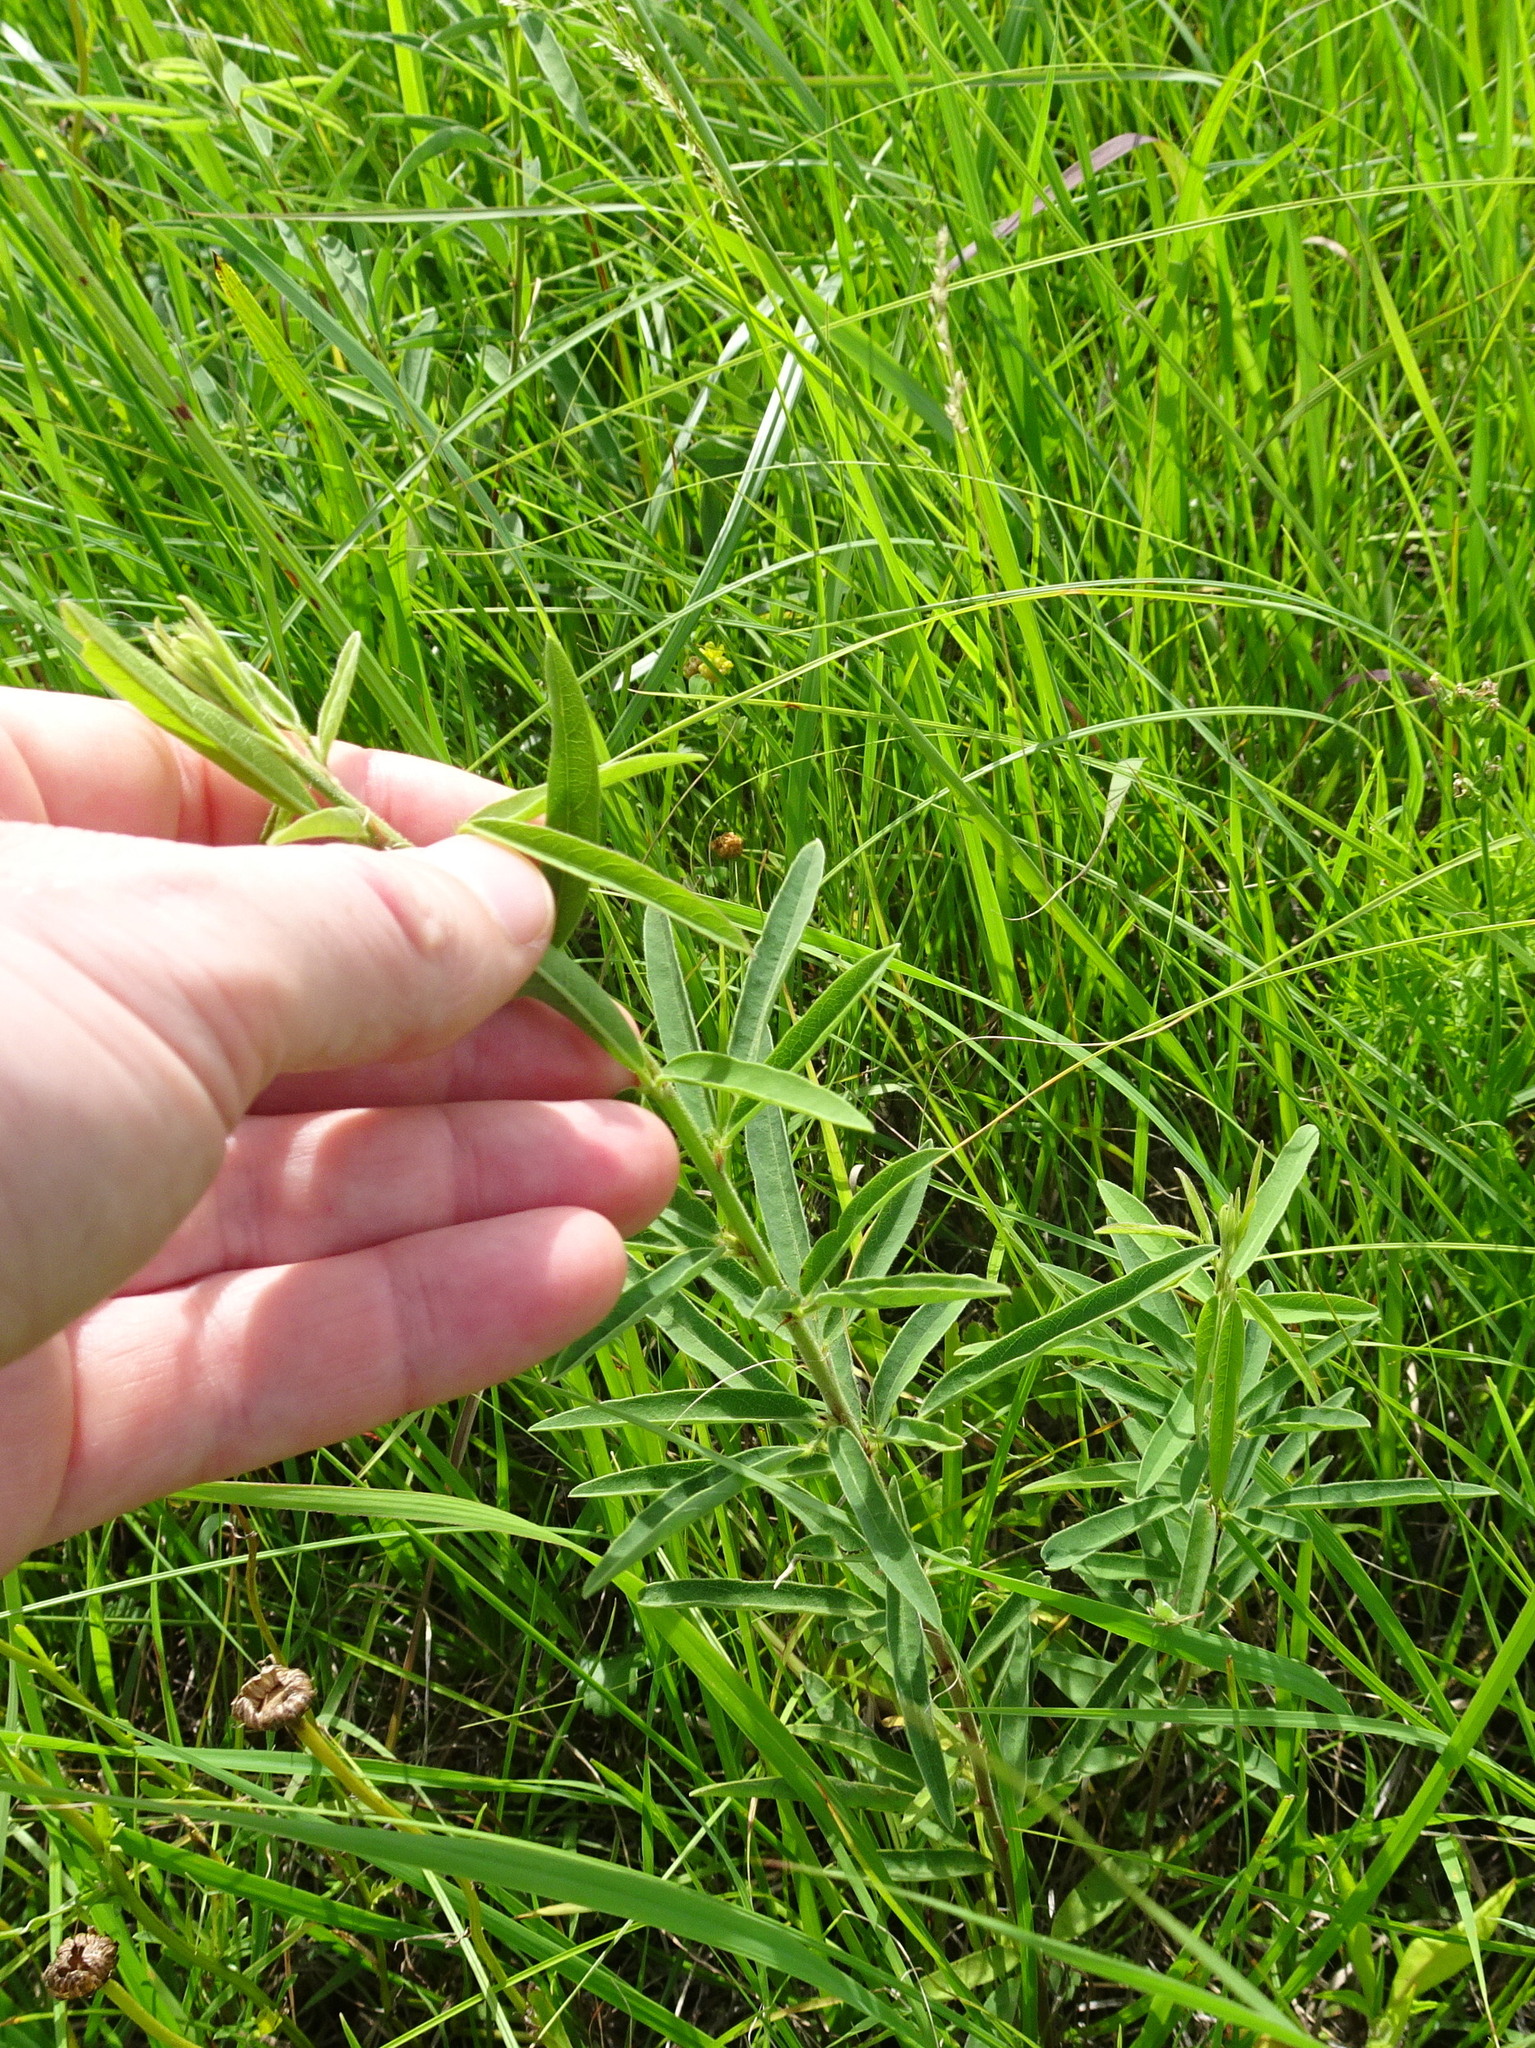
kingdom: Plantae
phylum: Tracheophyta
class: Magnoliopsida
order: Fabales
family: Fabaceae
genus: Desmodium
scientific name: Desmodium sessilifolium
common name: Sessile tick-clover
